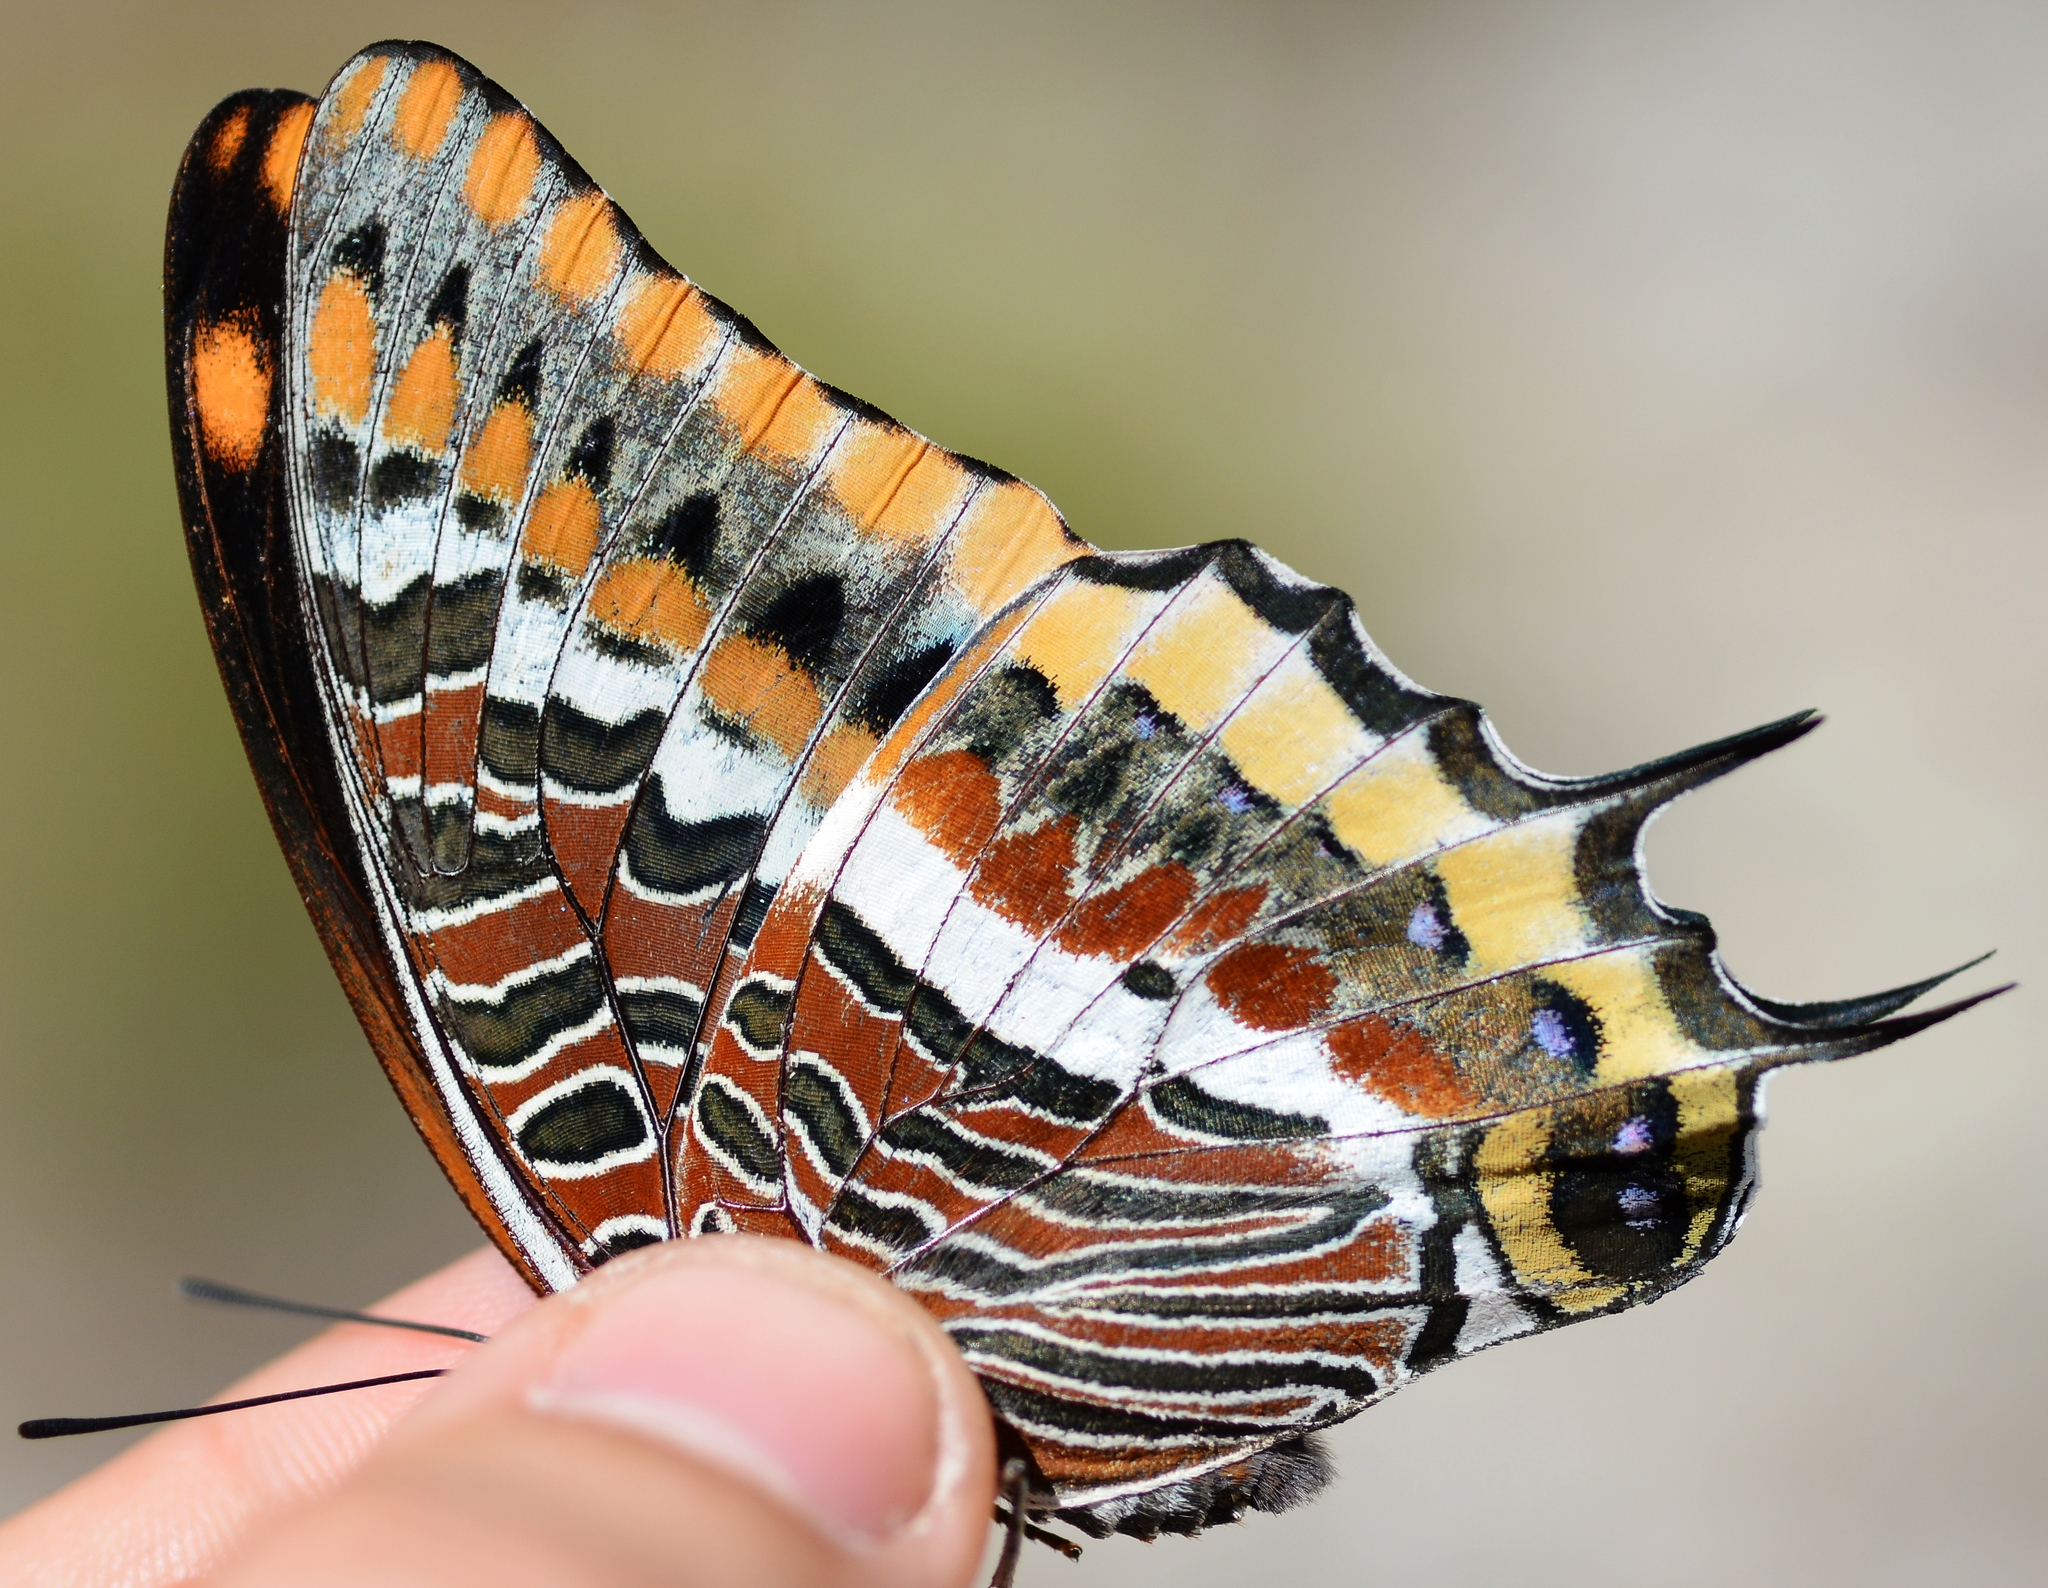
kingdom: Animalia
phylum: Arthropoda
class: Insecta
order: Lepidoptera
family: Nymphalidae
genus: Charaxes
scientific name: Charaxes jasius
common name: Two tailed pasha
